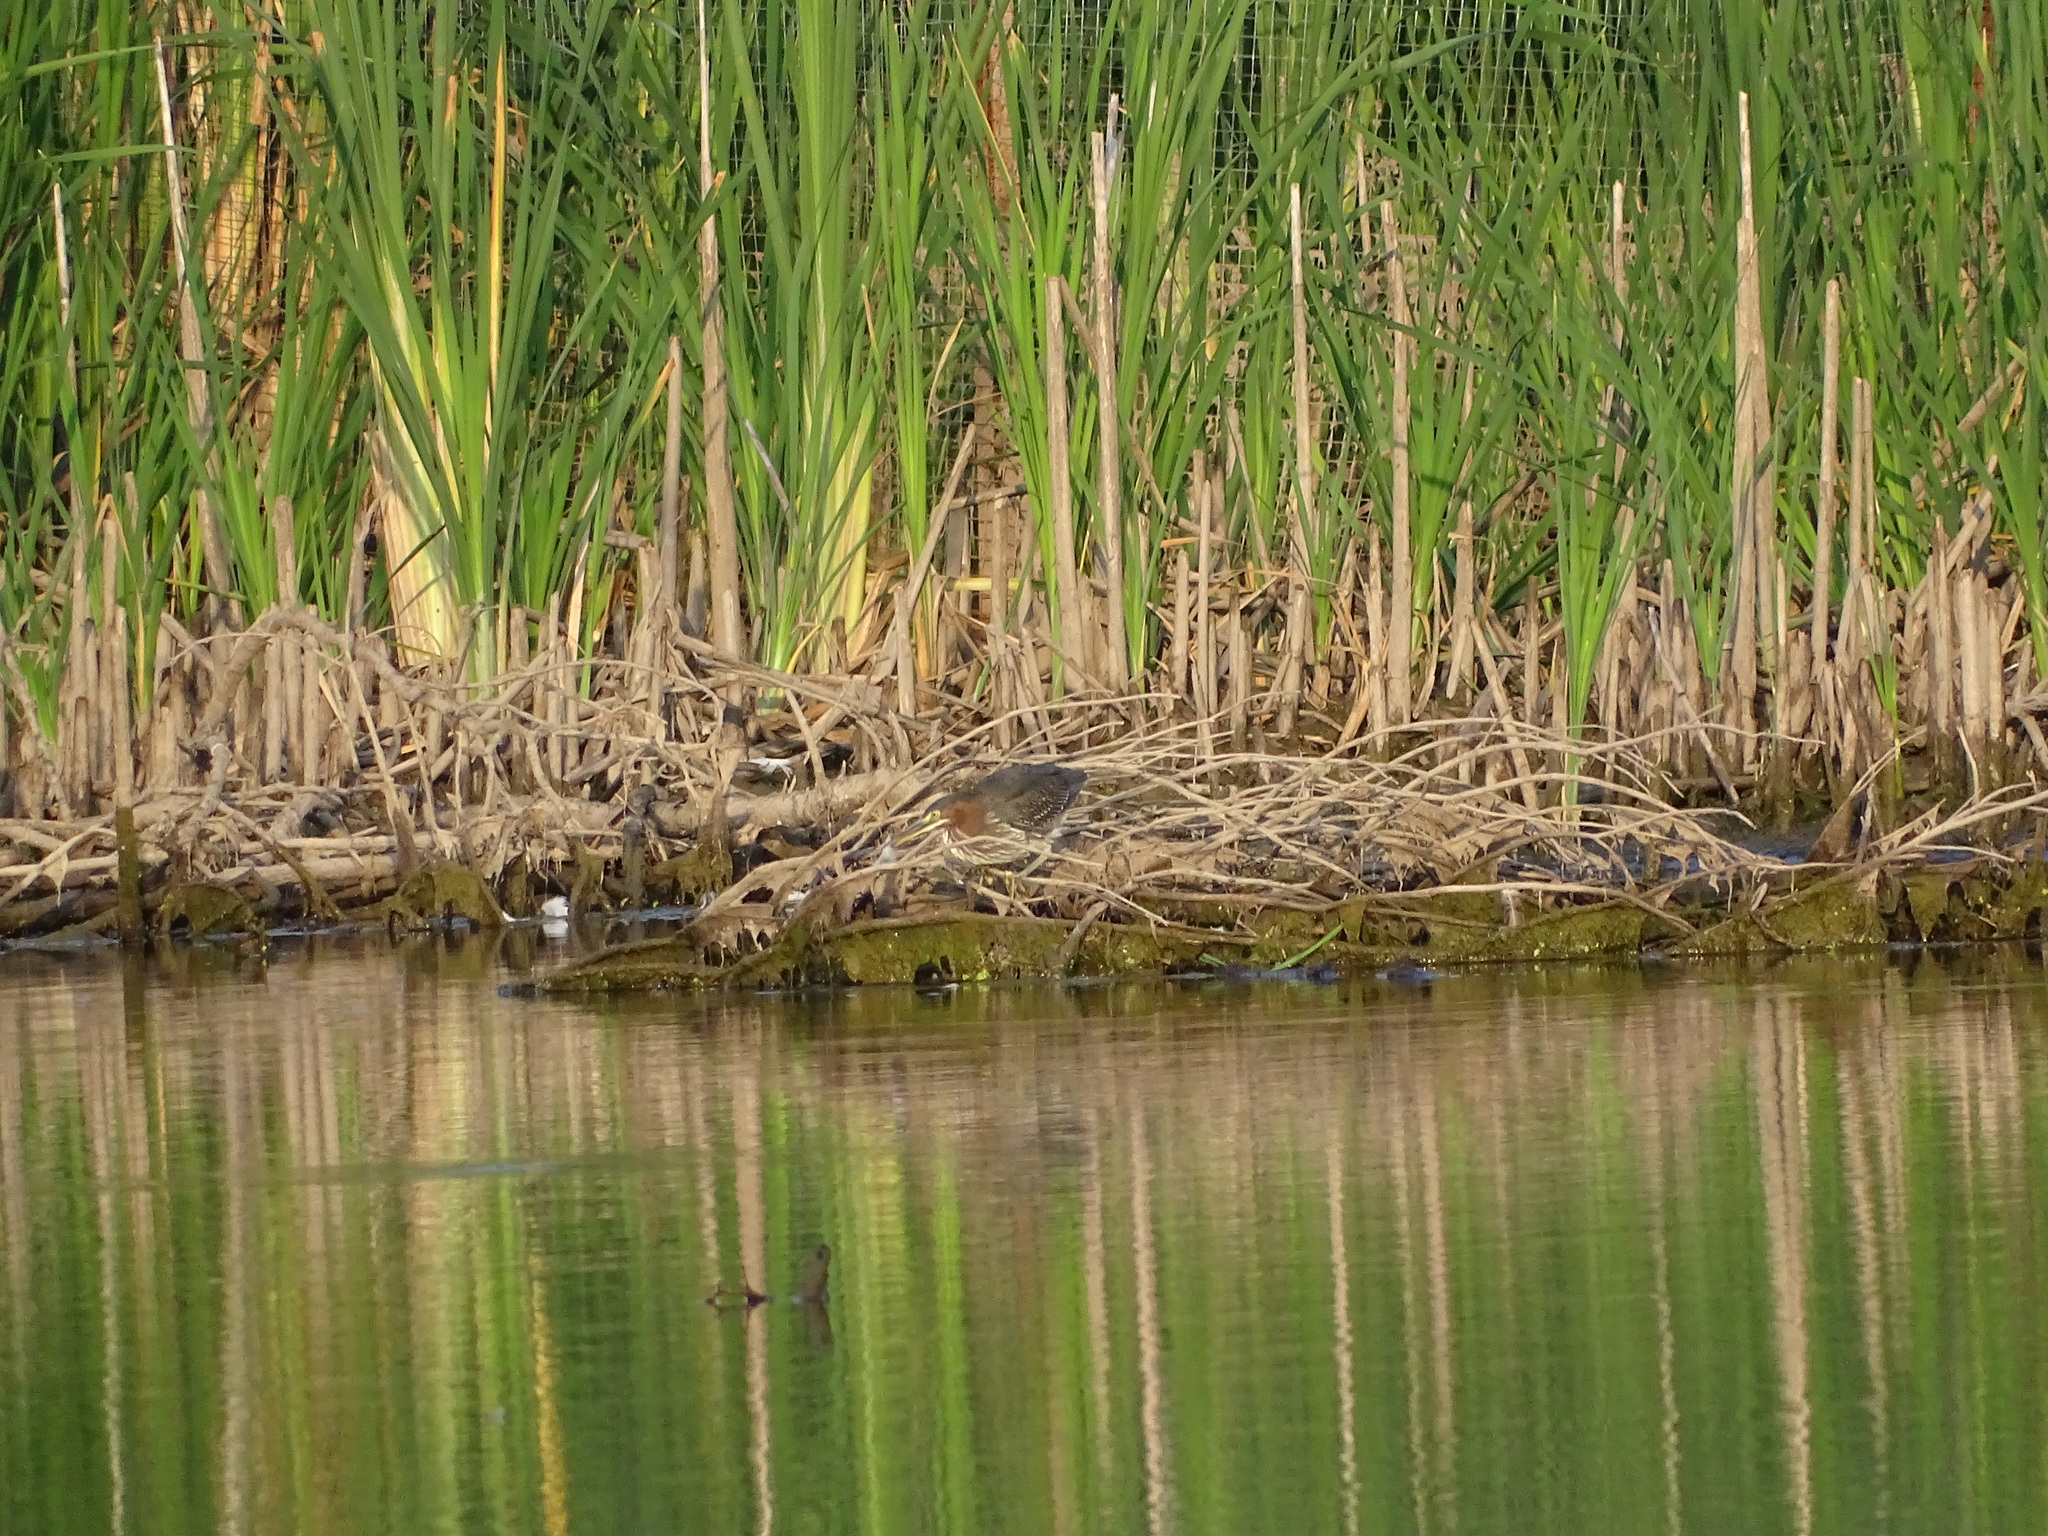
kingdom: Animalia
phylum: Chordata
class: Aves
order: Pelecaniformes
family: Ardeidae
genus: Butorides
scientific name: Butorides virescens
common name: Green heron
